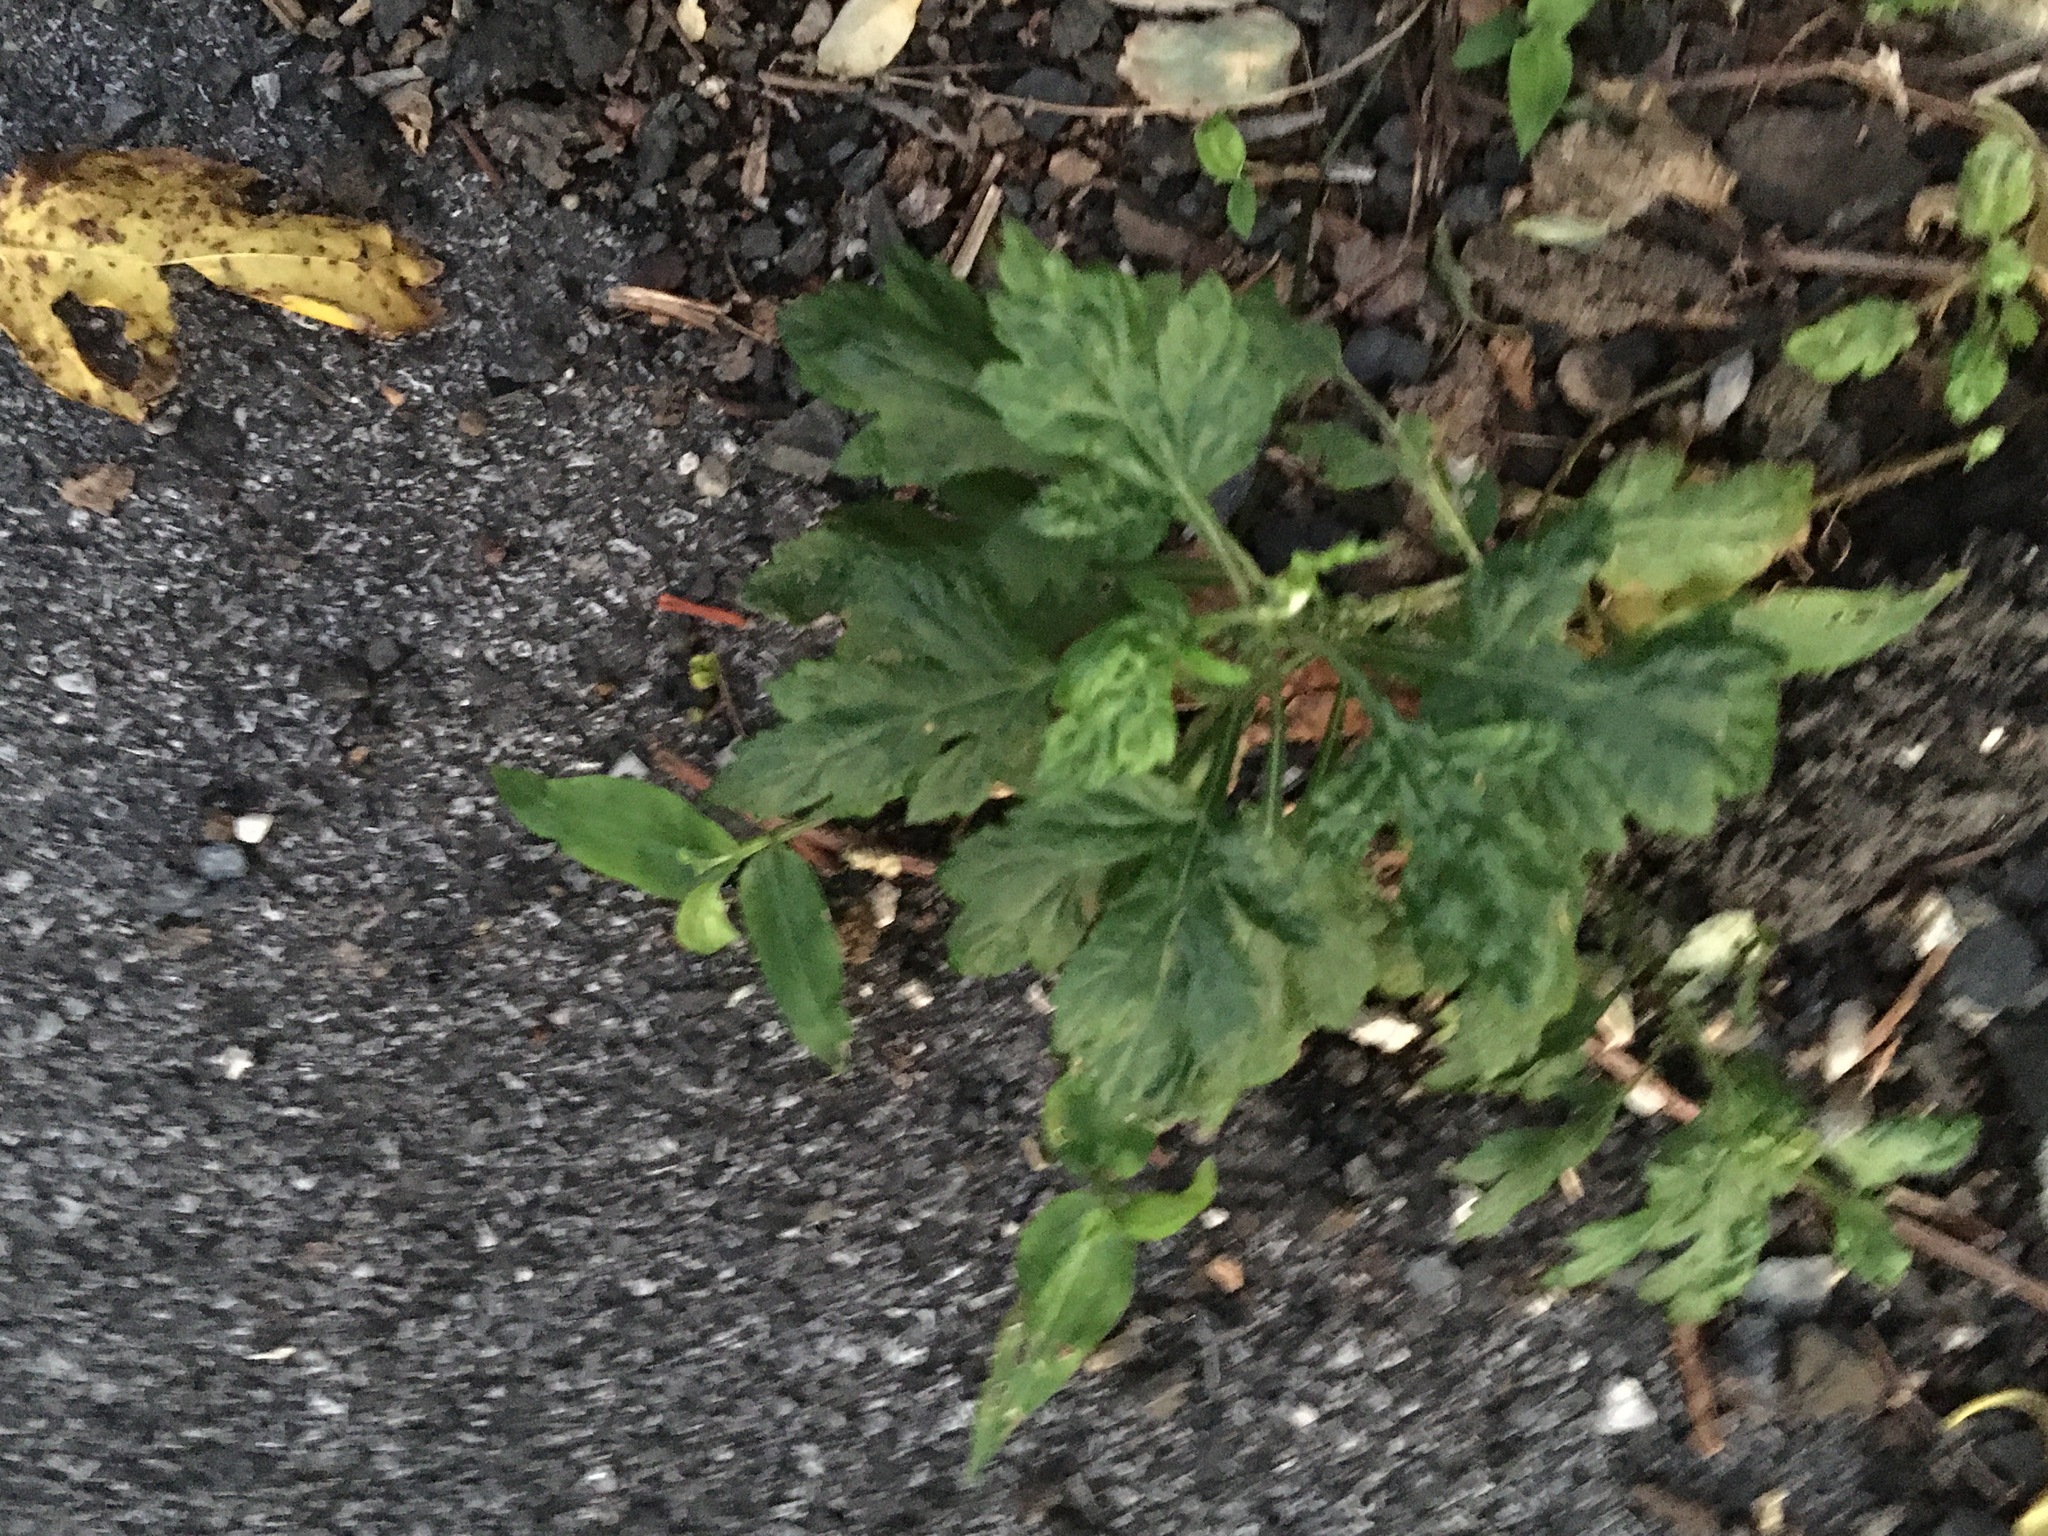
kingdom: Plantae
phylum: Tracheophyta
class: Magnoliopsida
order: Asterales
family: Asteraceae
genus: Artemisia
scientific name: Artemisia vulgaris
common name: Mugwort
